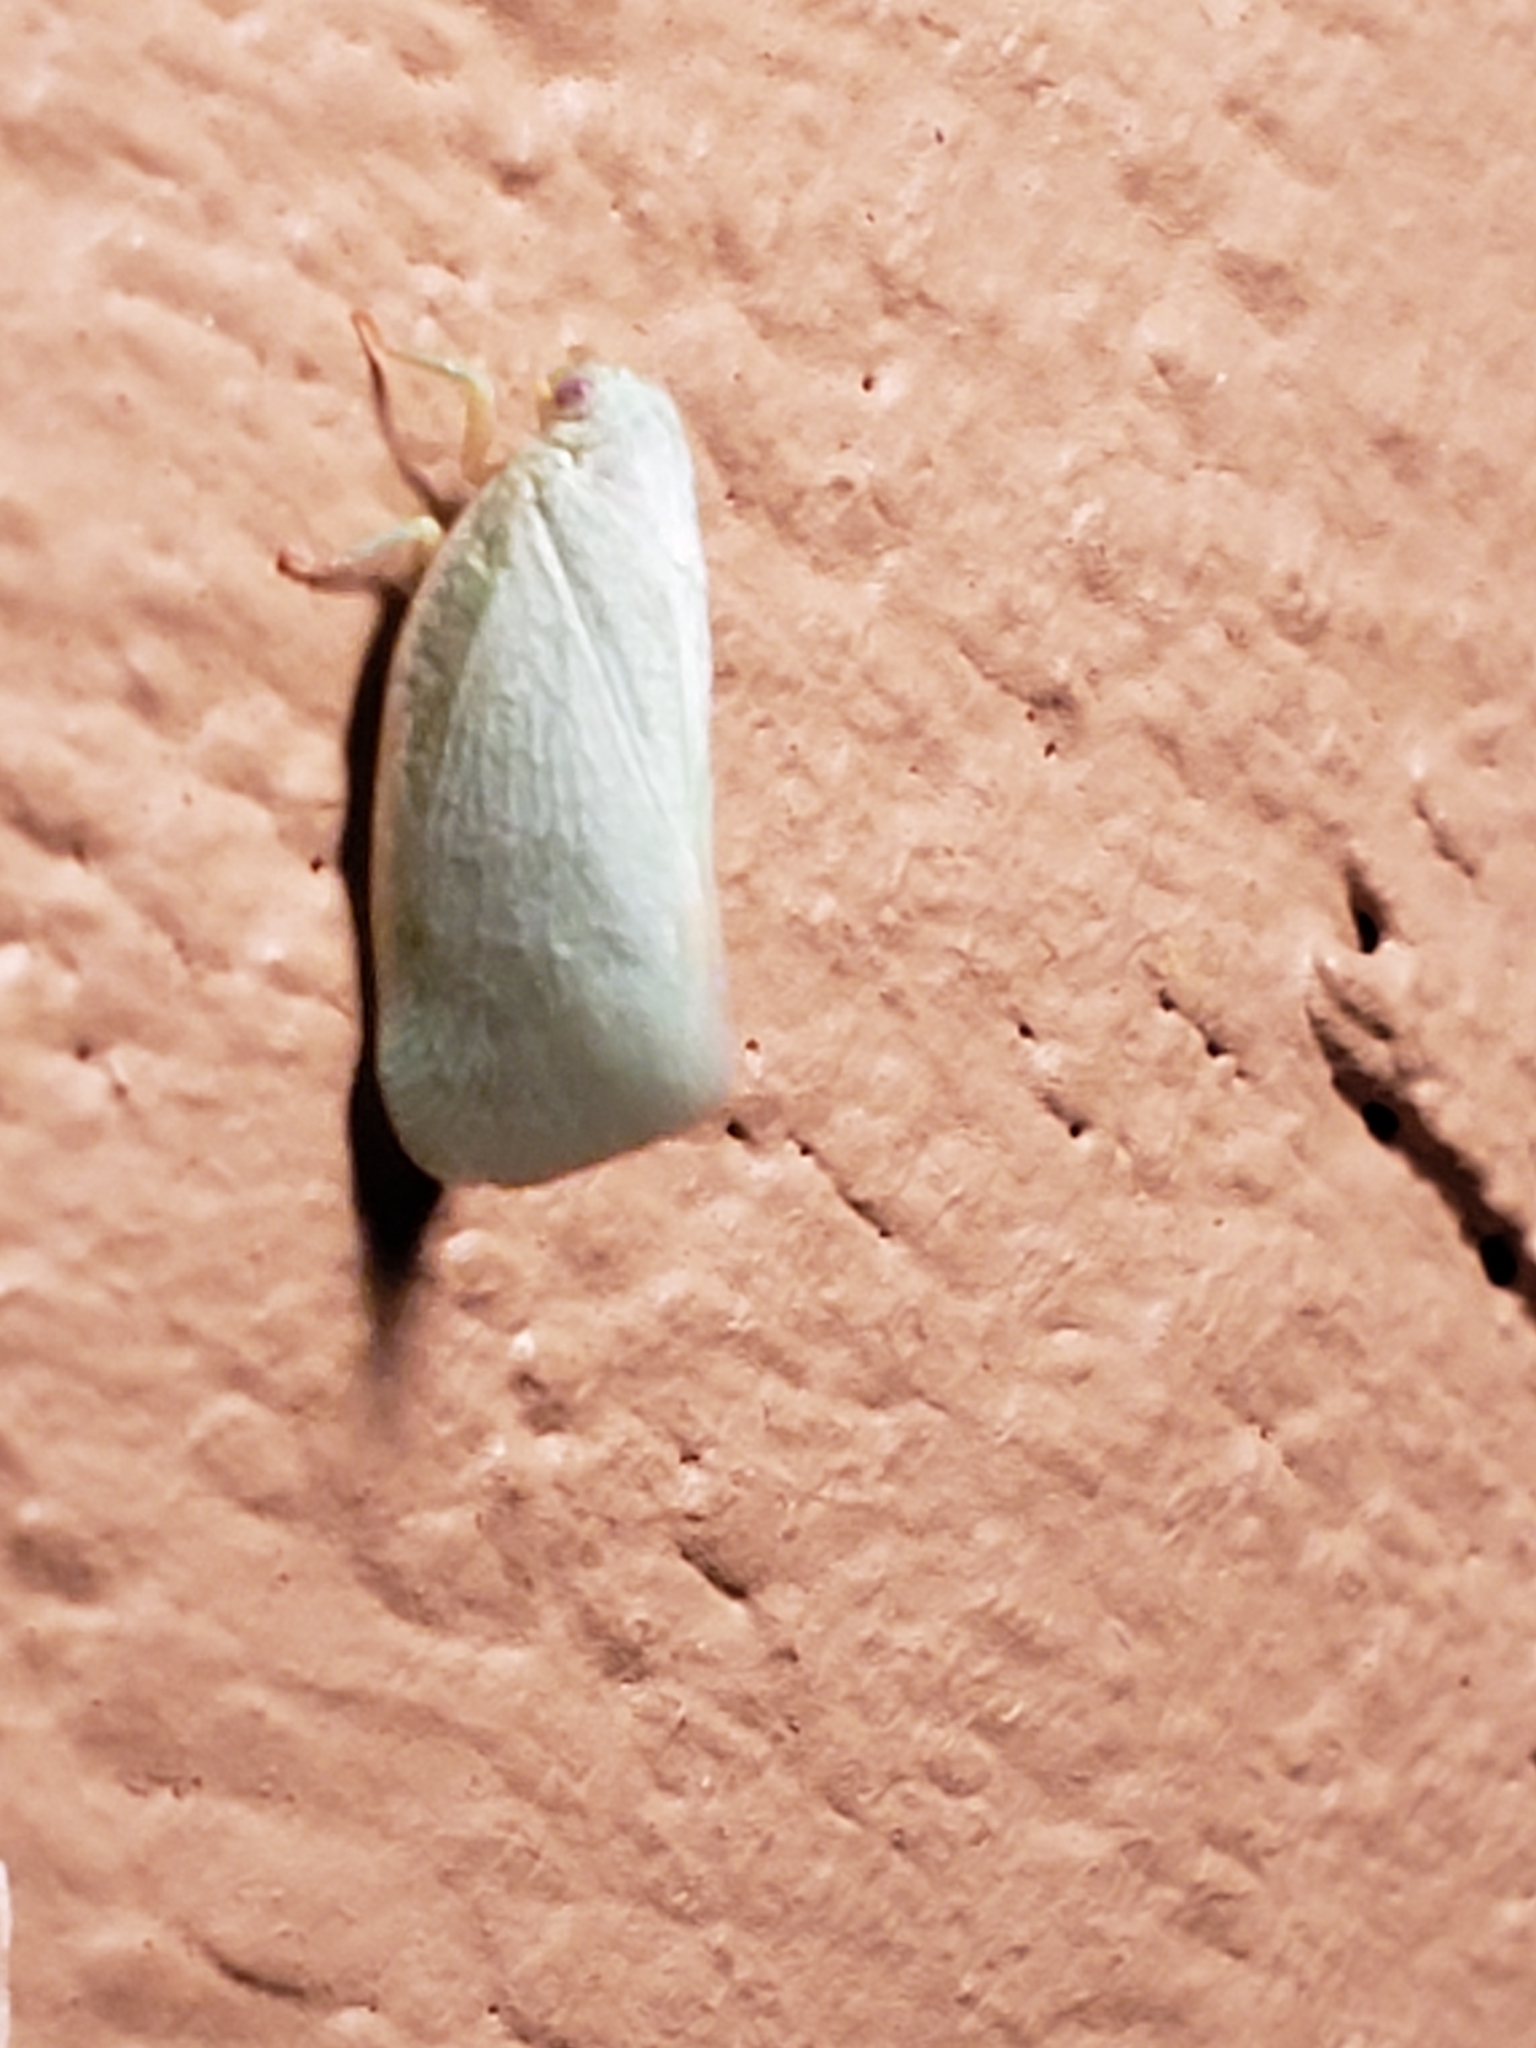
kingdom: Animalia
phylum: Arthropoda
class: Insecta
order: Hemiptera
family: Flatidae
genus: Flatormenis
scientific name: Flatormenis proxima
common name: Northern flatid planthopper
